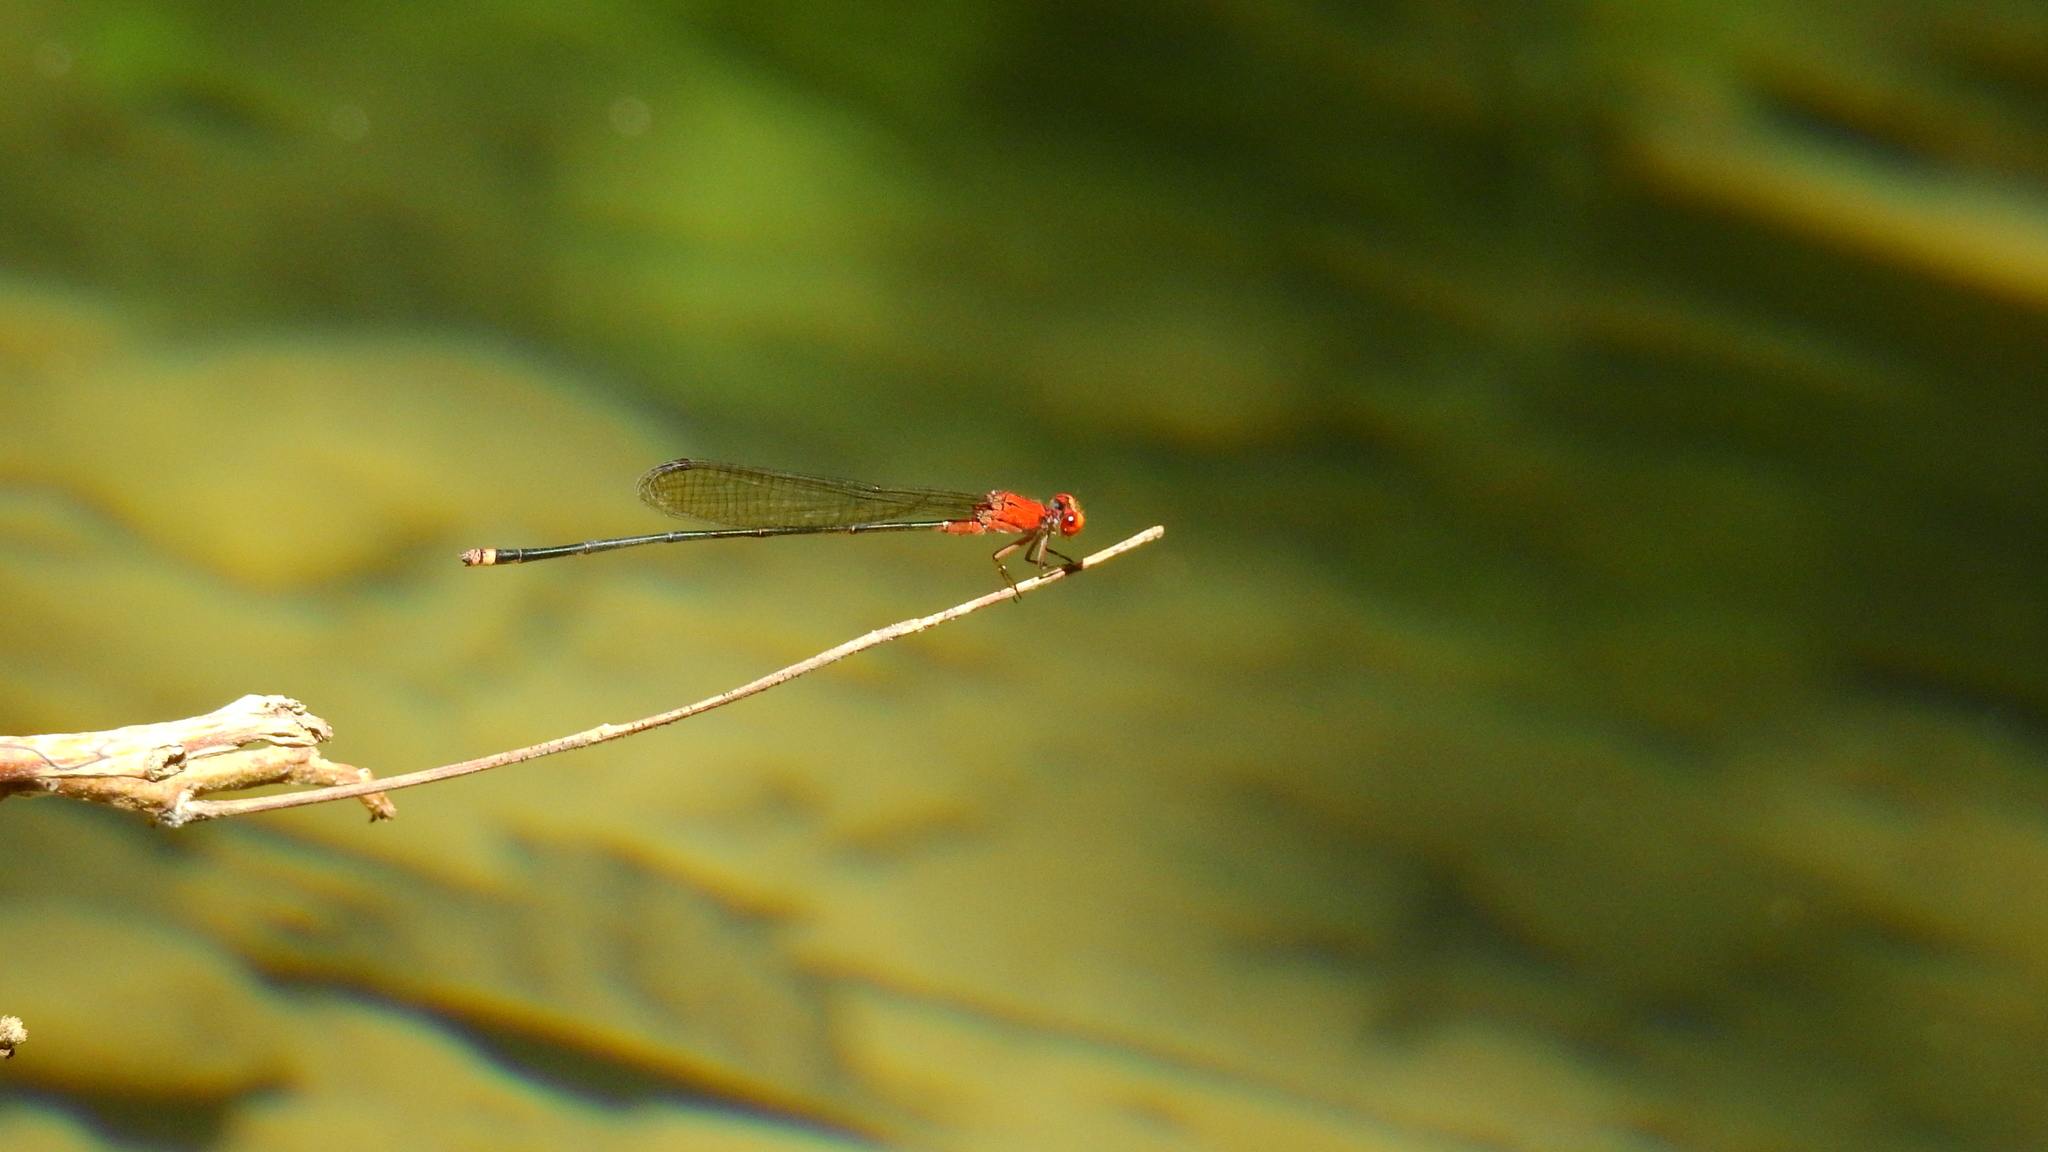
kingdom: Animalia
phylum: Arthropoda
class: Insecta
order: Odonata
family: Coenagrionidae
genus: Pseudagrion
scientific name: Pseudagrion ustum
